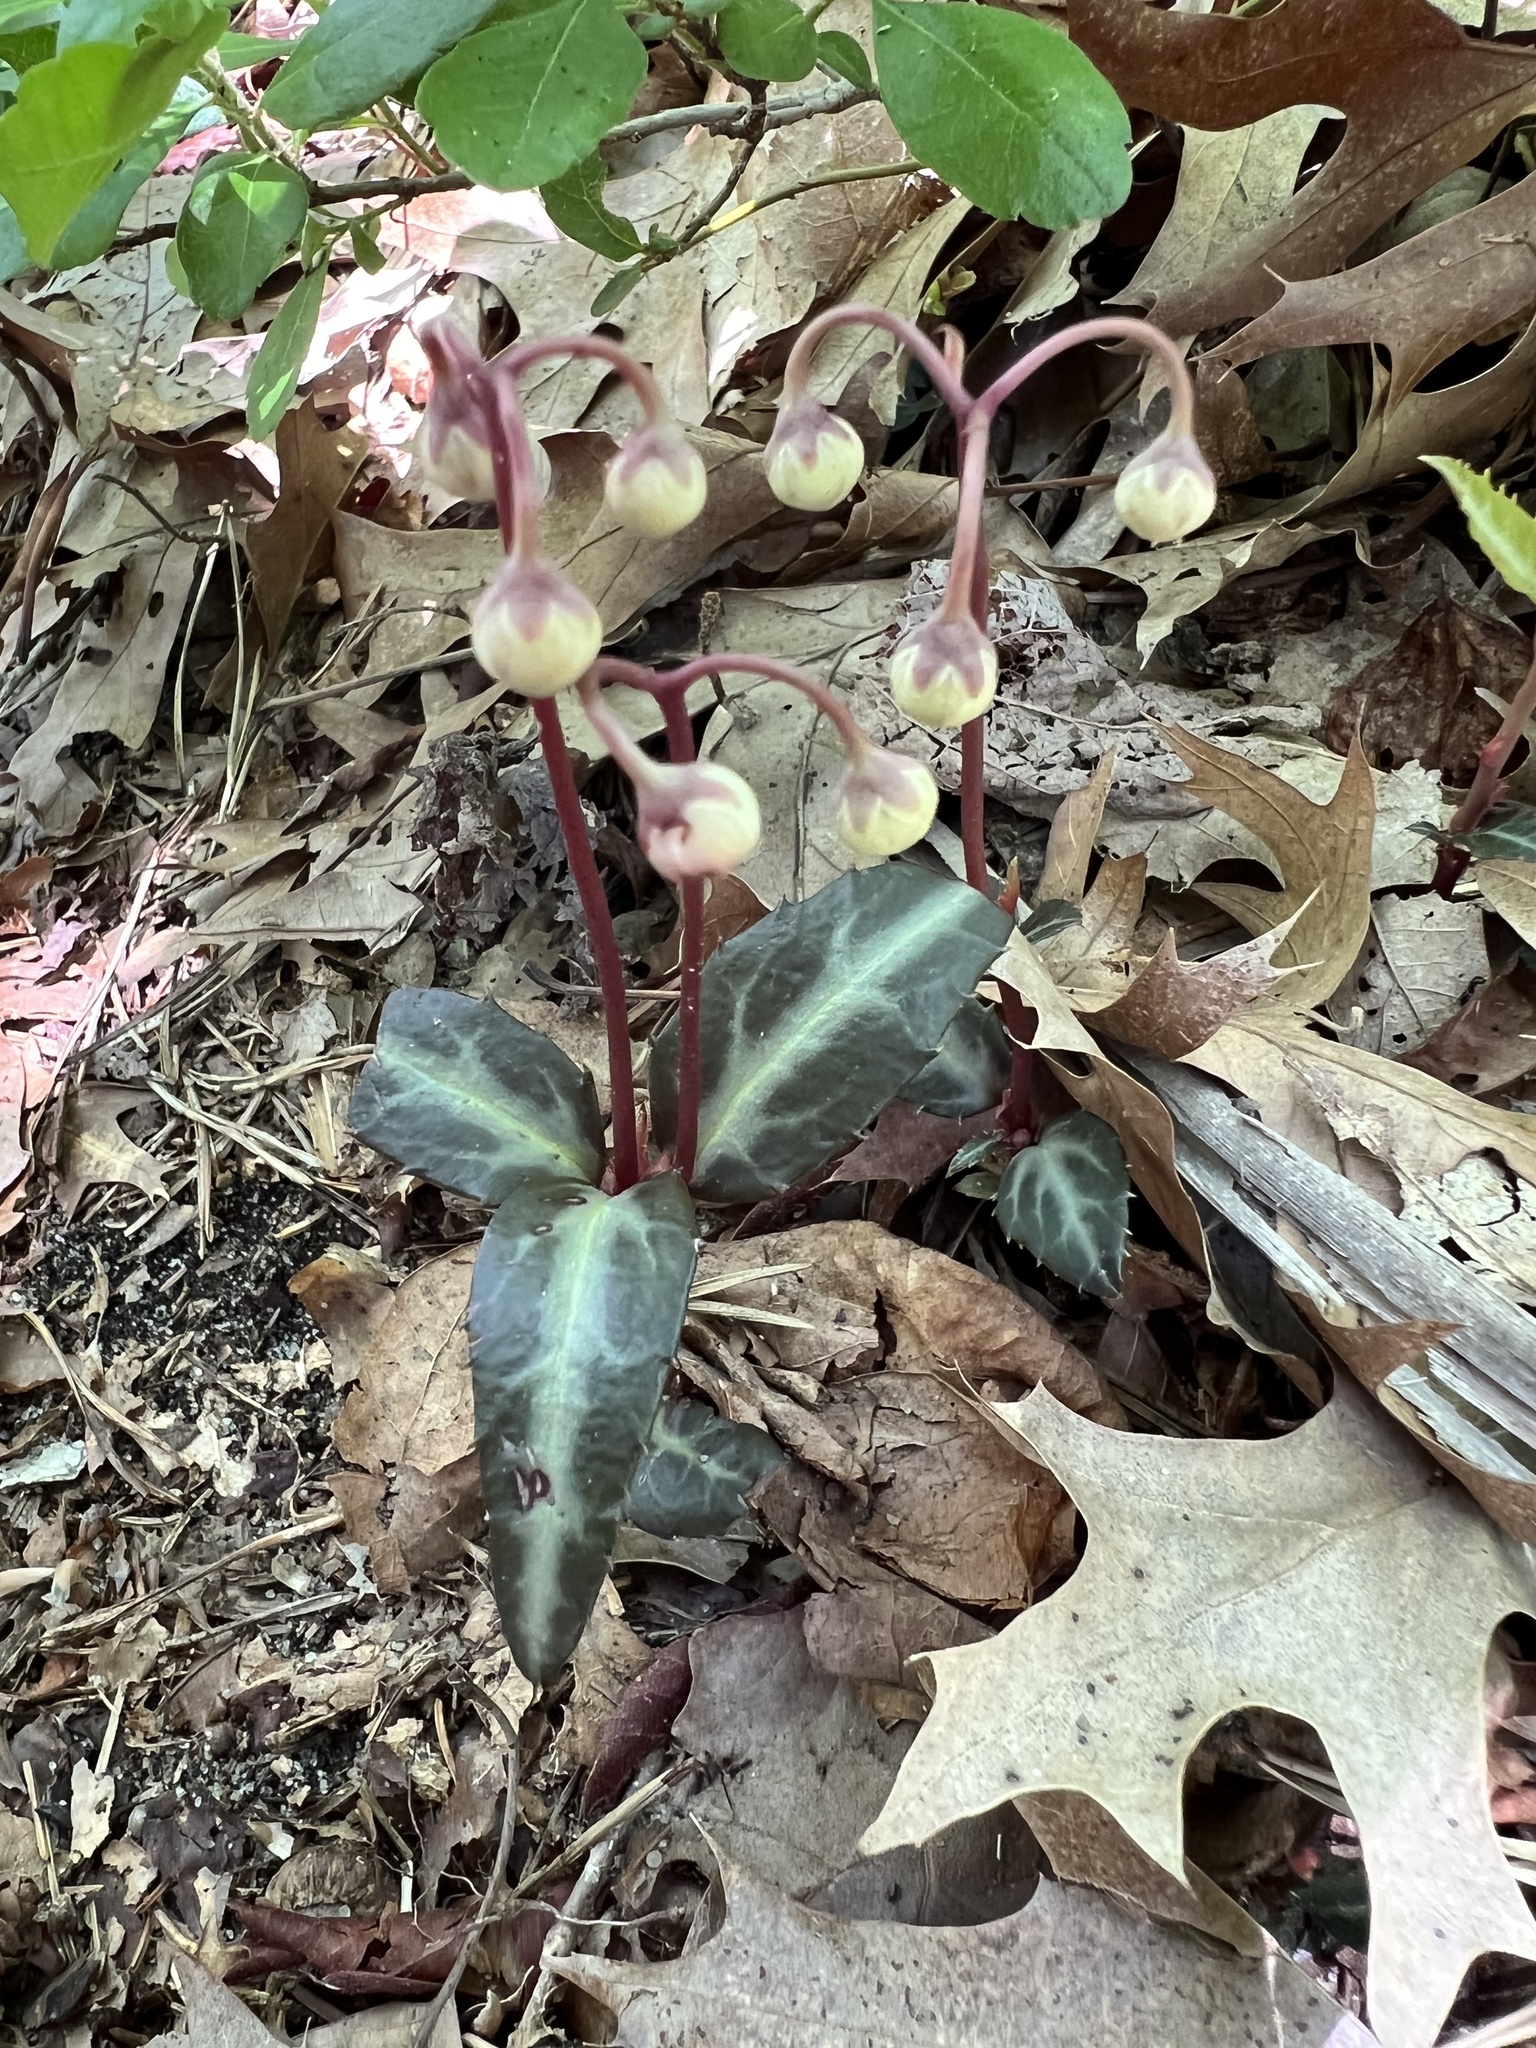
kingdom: Plantae
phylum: Tracheophyta
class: Magnoliopsida
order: Ericales
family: Ericaceae
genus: Chimaphila
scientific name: Chimaphila maculata
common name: Spotted pipsissewa
